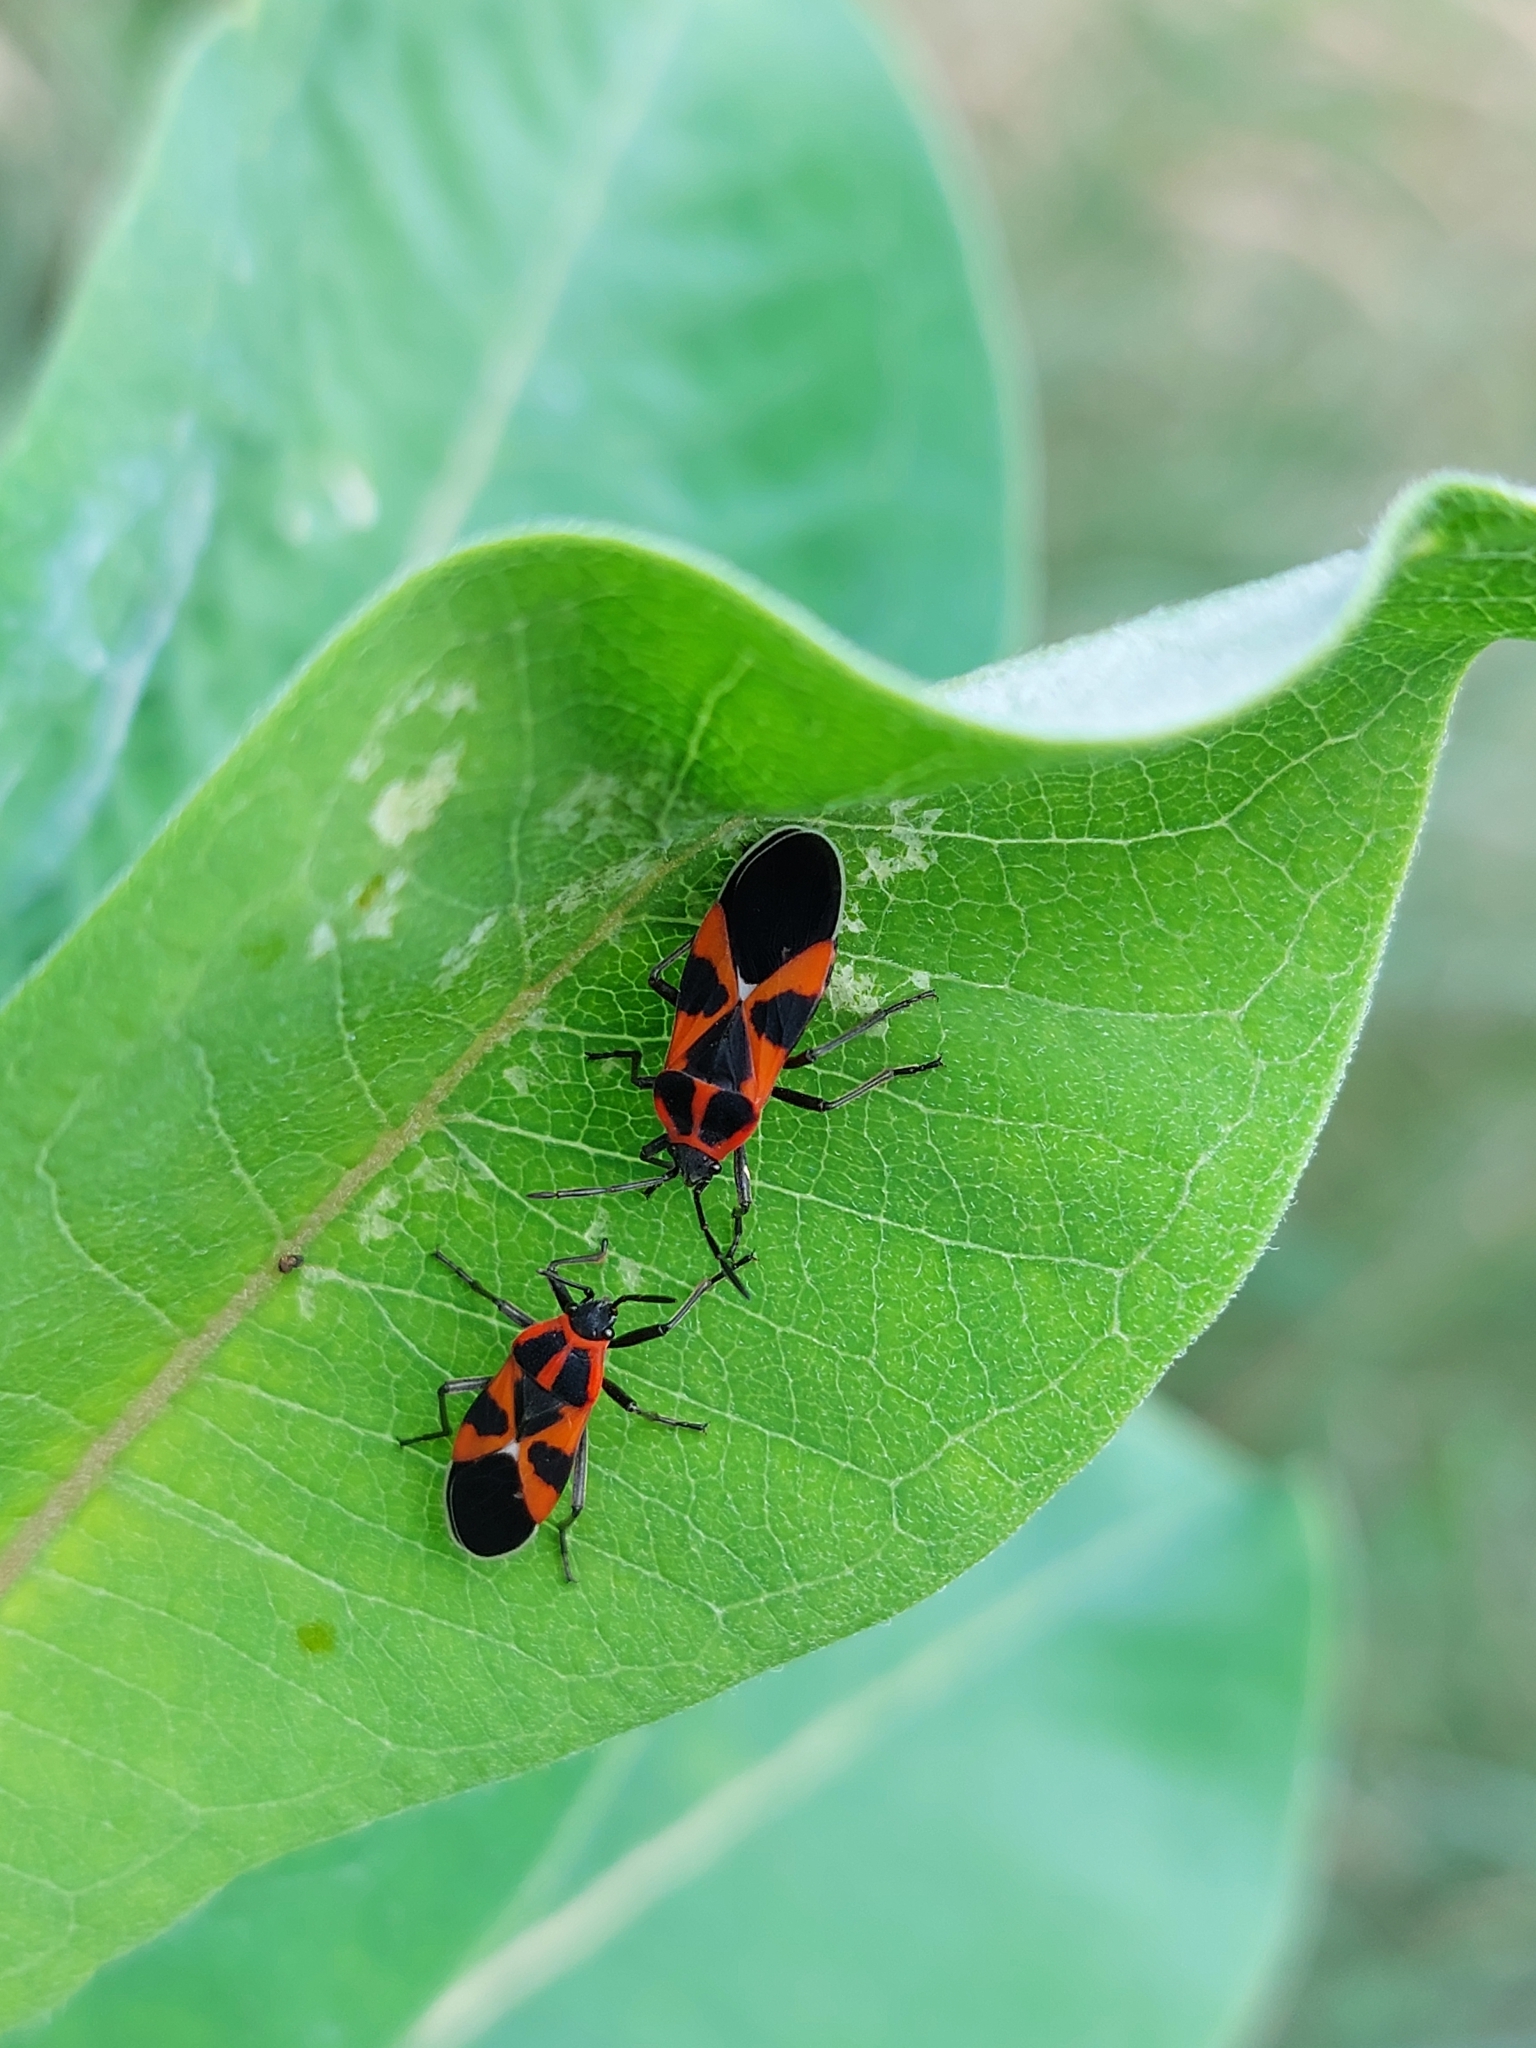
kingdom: Animalia
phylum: Arthropoda
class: Insecta
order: Hemiptera
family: Lygaeidae
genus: Tropidothorax
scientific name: Tropidothorax leucopterus
